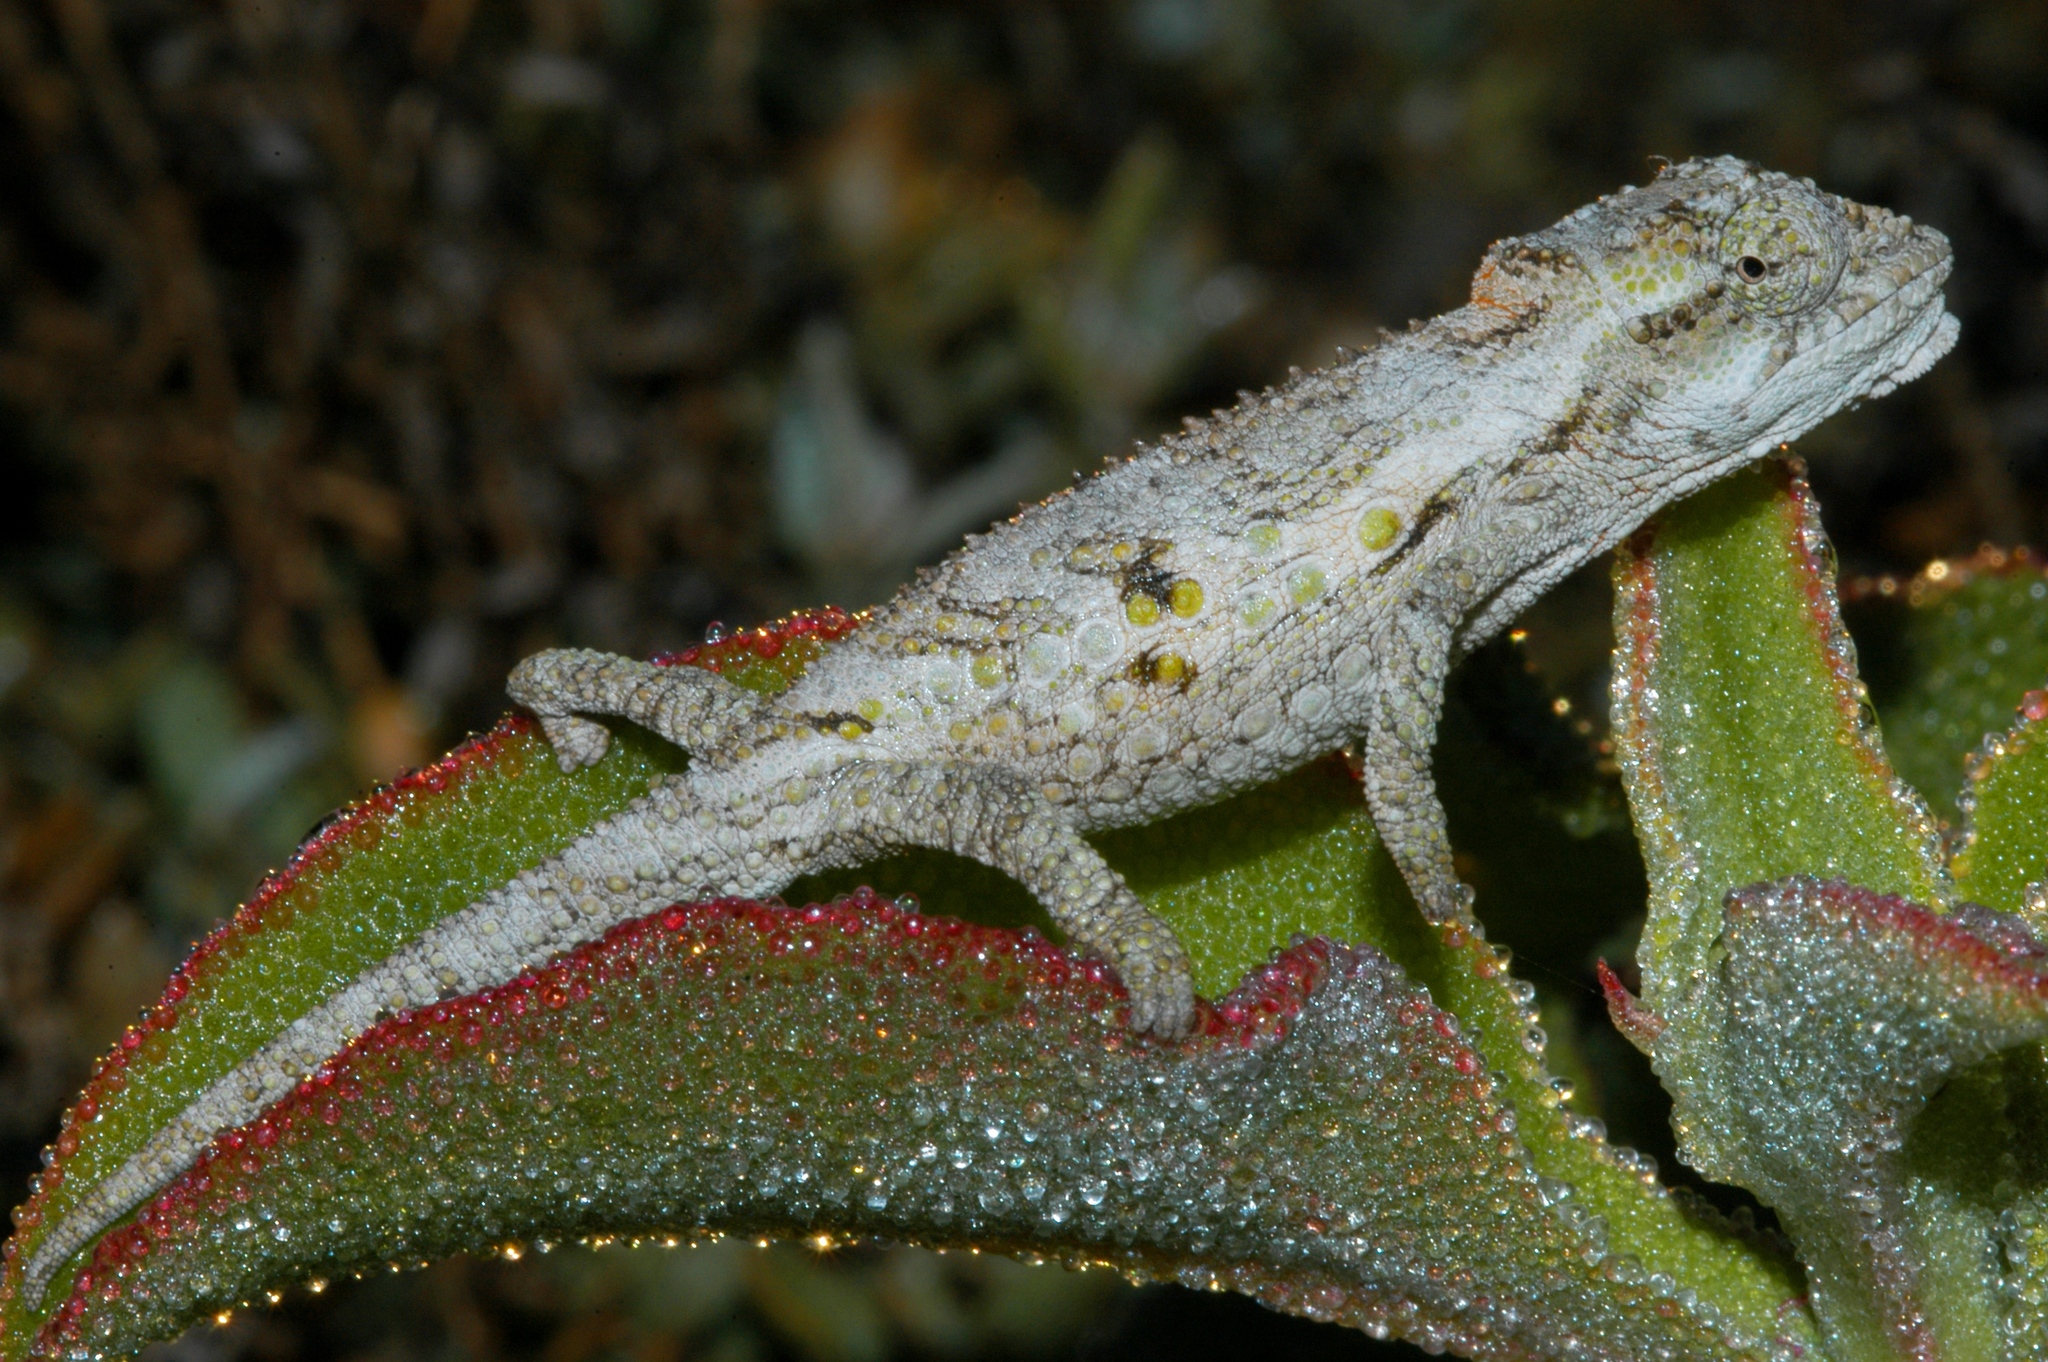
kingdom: Animalia
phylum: Chordata
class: Squamata
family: Chamaeleonidae
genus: Bradypodion
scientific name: Bradypodion occidentale
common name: Western dwarf chameleon
